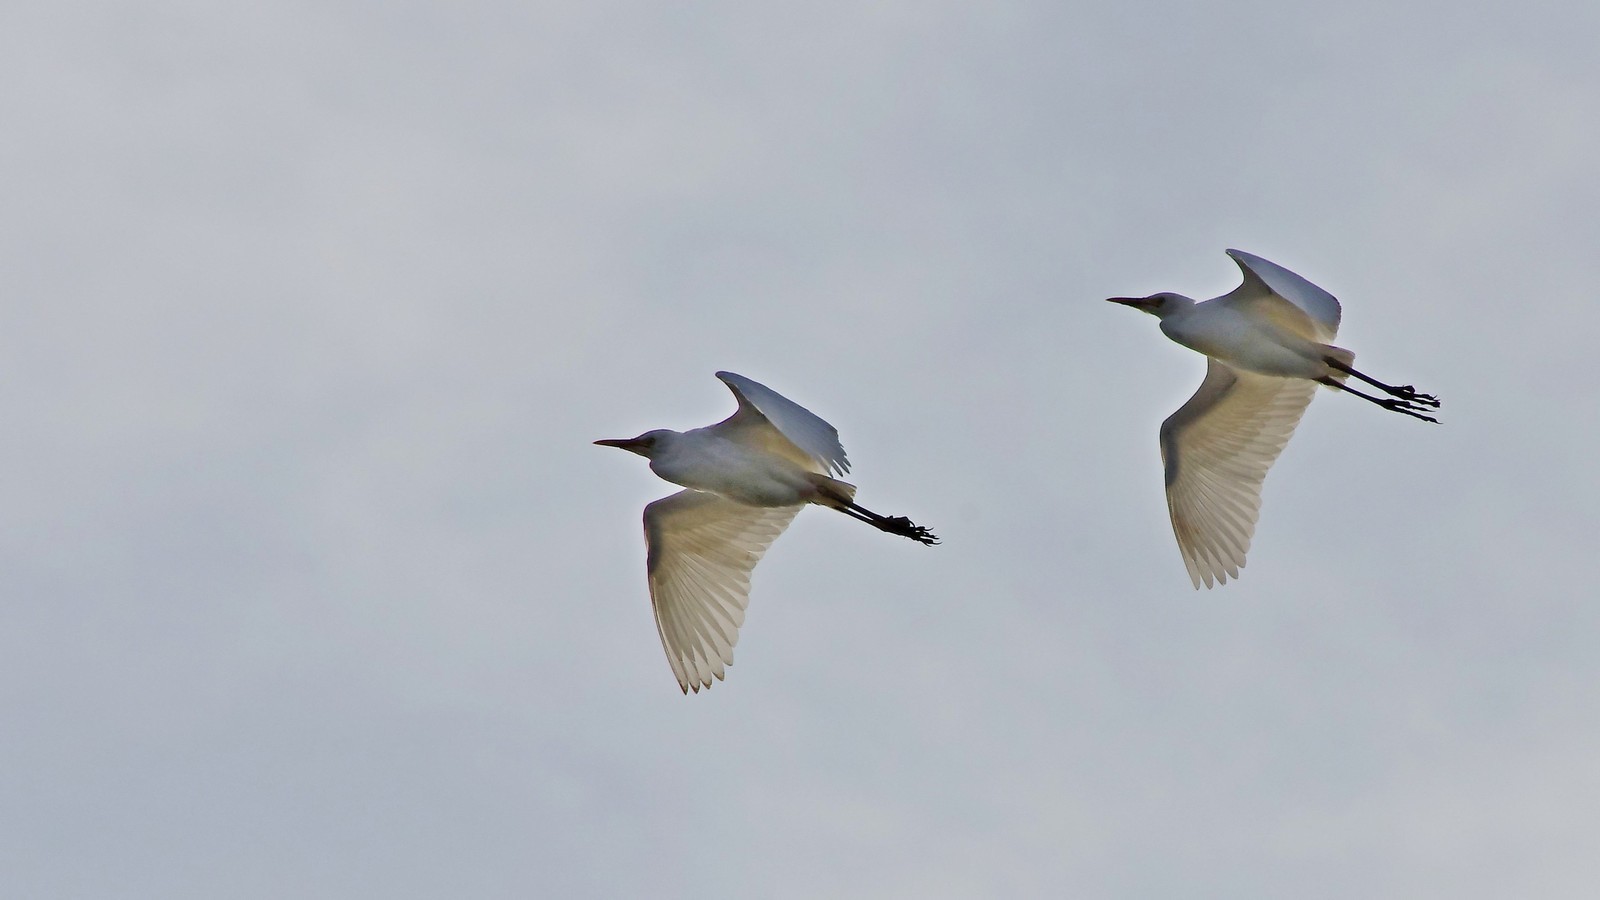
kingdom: Animalia
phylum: Chordata
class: Aves
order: Pelecaniformes
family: Ardeidae
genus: Bubulcus
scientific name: Bubulcus coromandus
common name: Eastern cattle egret
